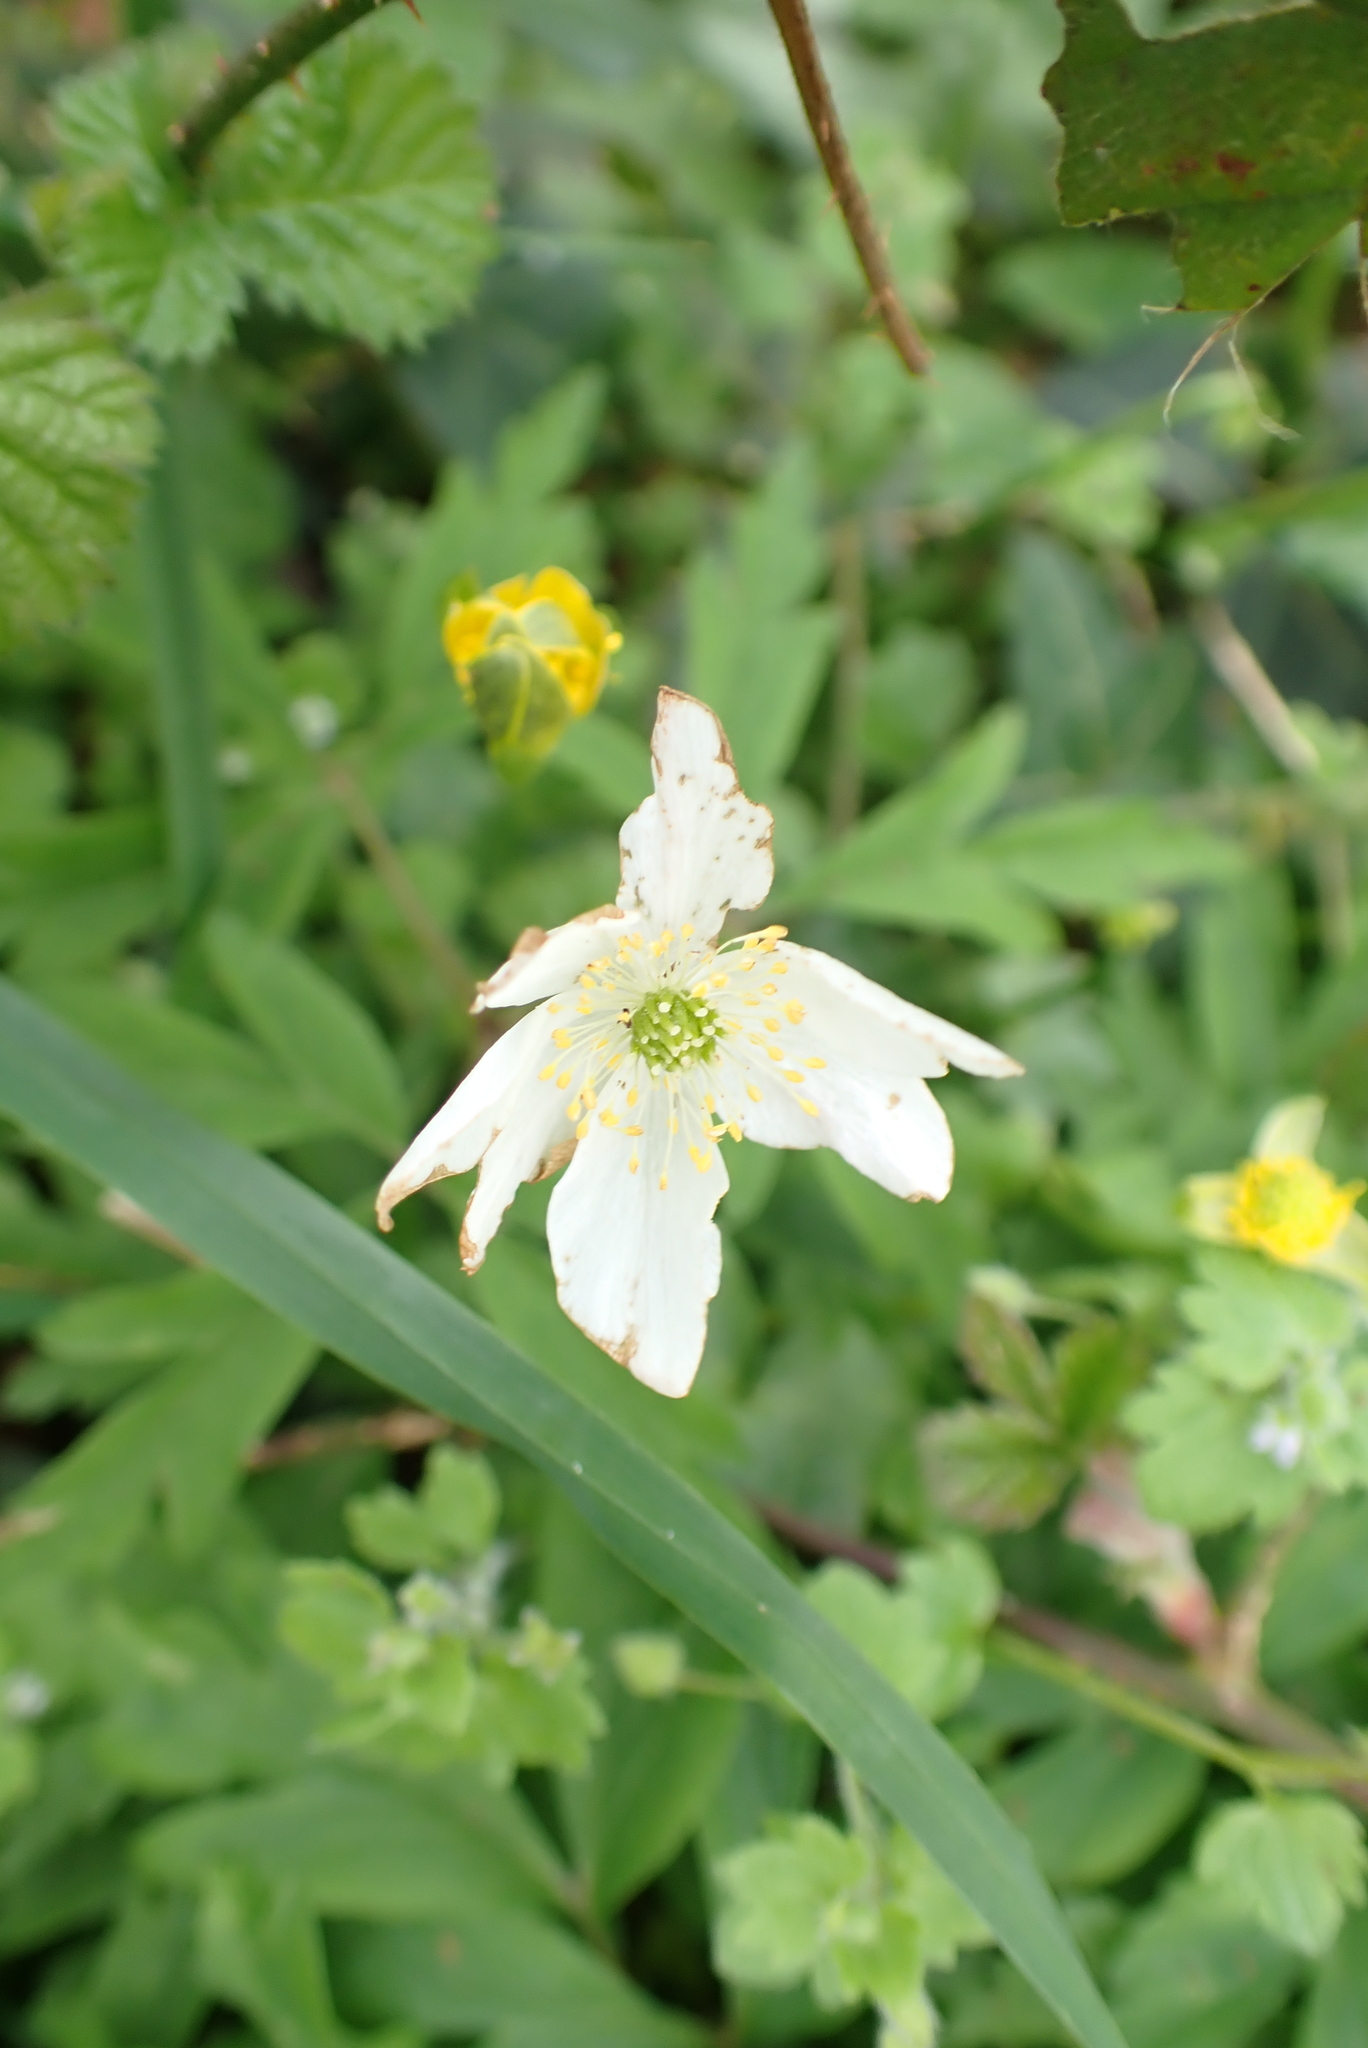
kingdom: Plantae
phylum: Tracheophyta
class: Magnoliopsida
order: Ranunculales
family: Ranunculaceae
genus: Anemone
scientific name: Anemone nemorosa
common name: Wood anemone
